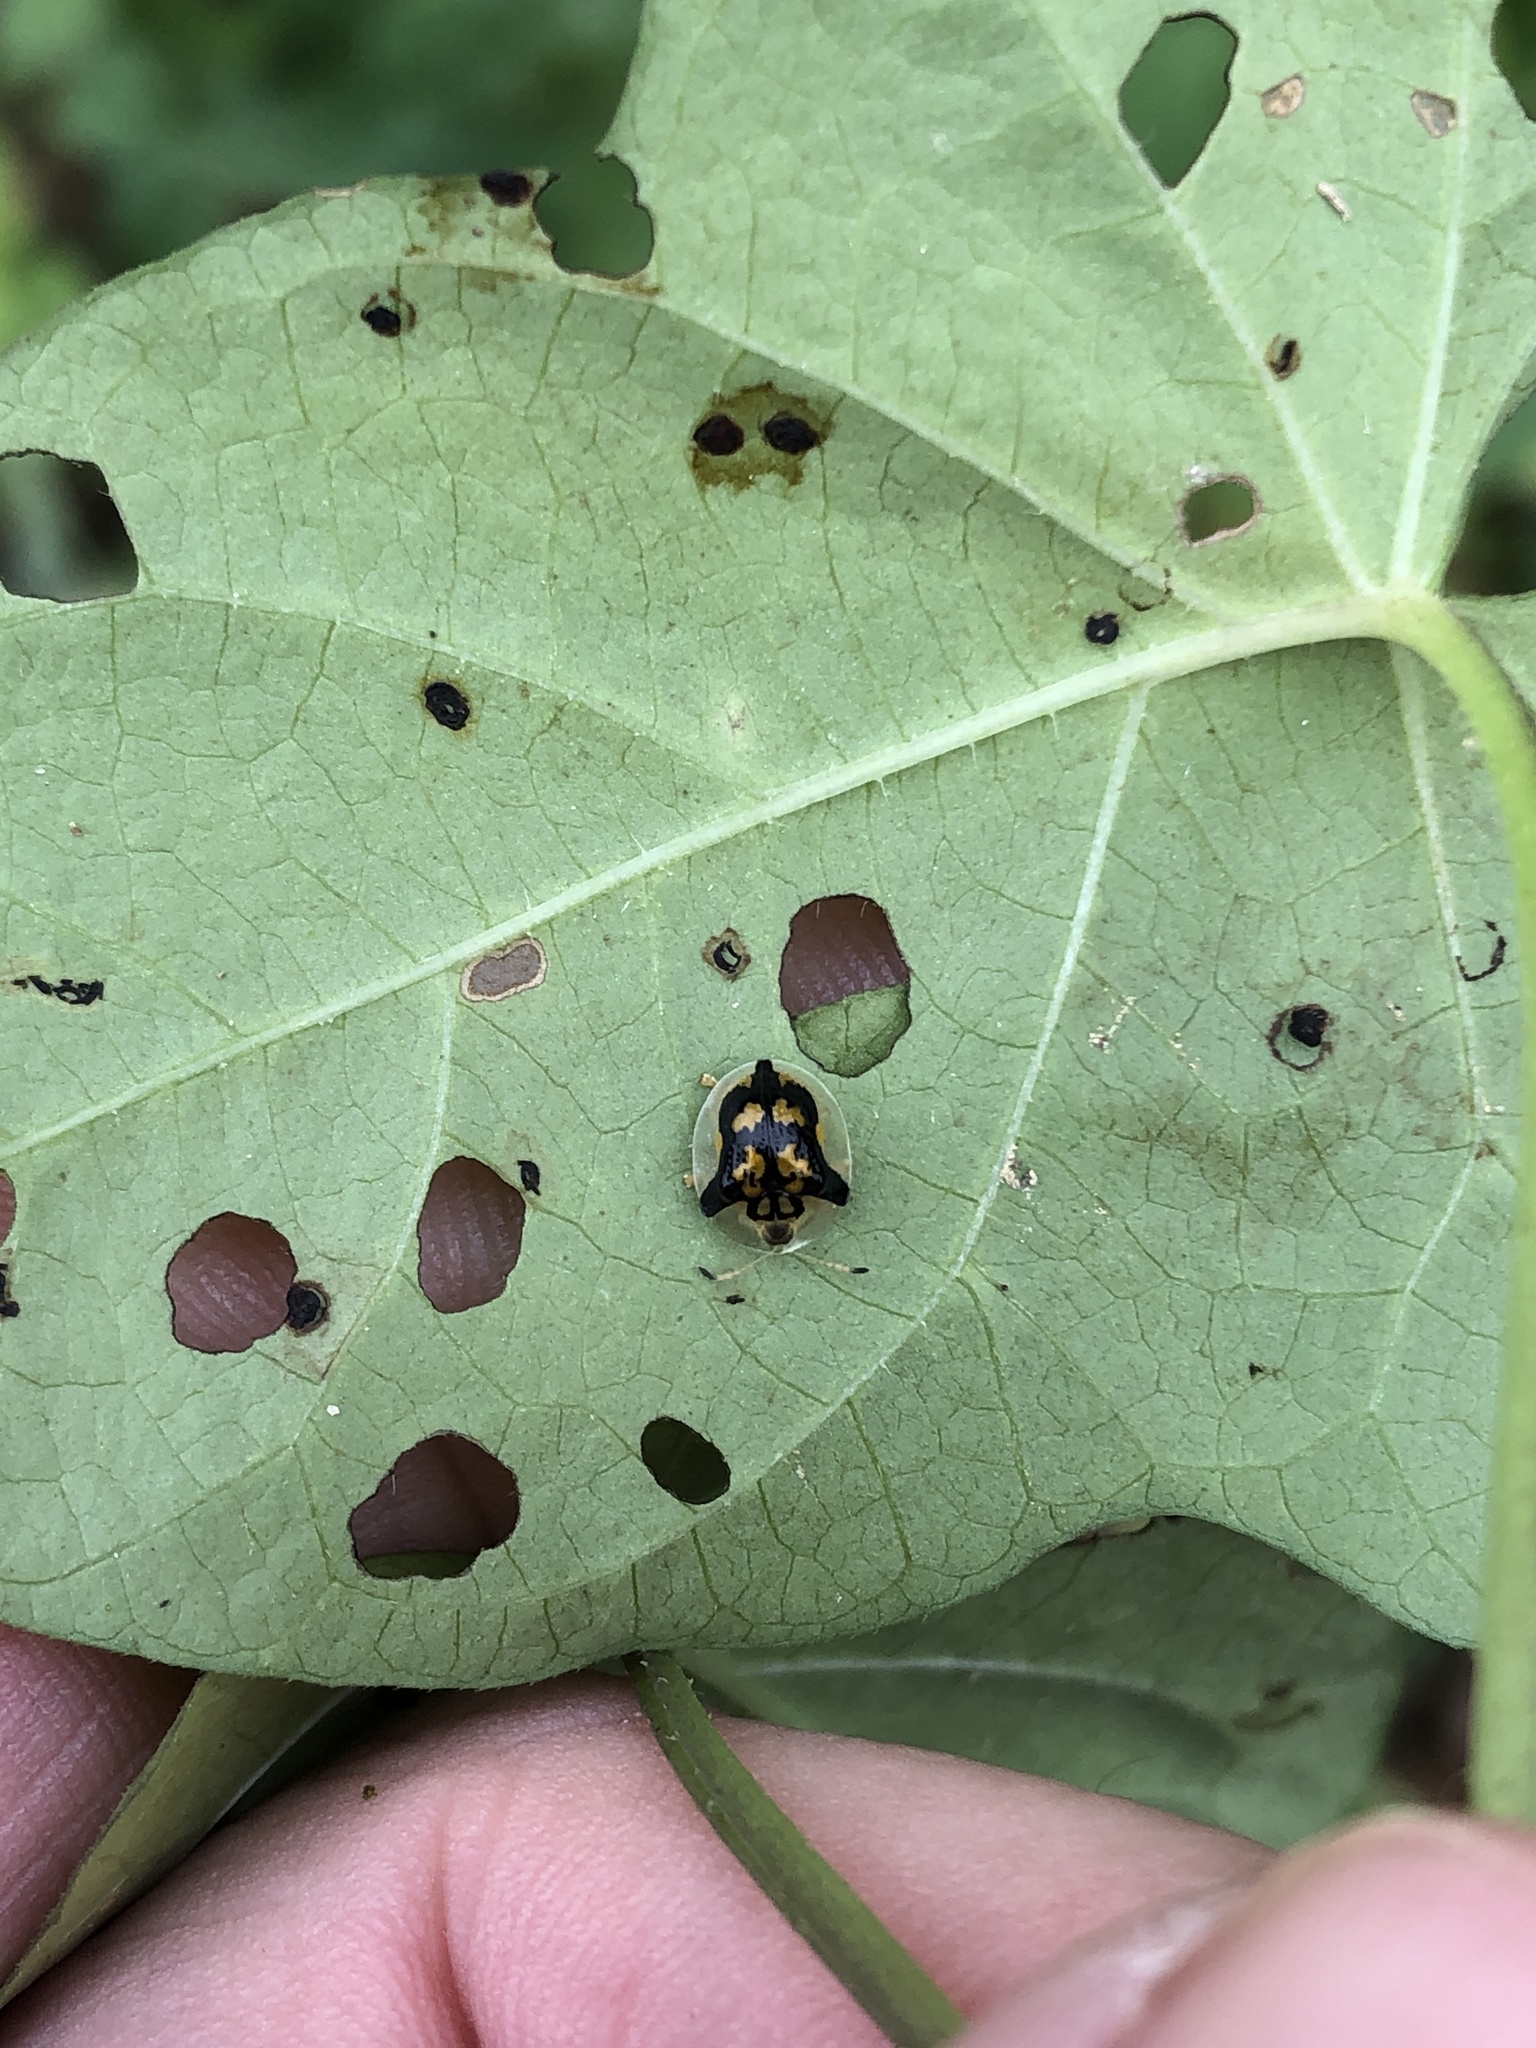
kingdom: Animalia
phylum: Arthropoda
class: Insecta
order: Coleoptera
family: Chrysomelidae
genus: Deloyala
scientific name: Deloyala guttata
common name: Mottled tortoise beetle
